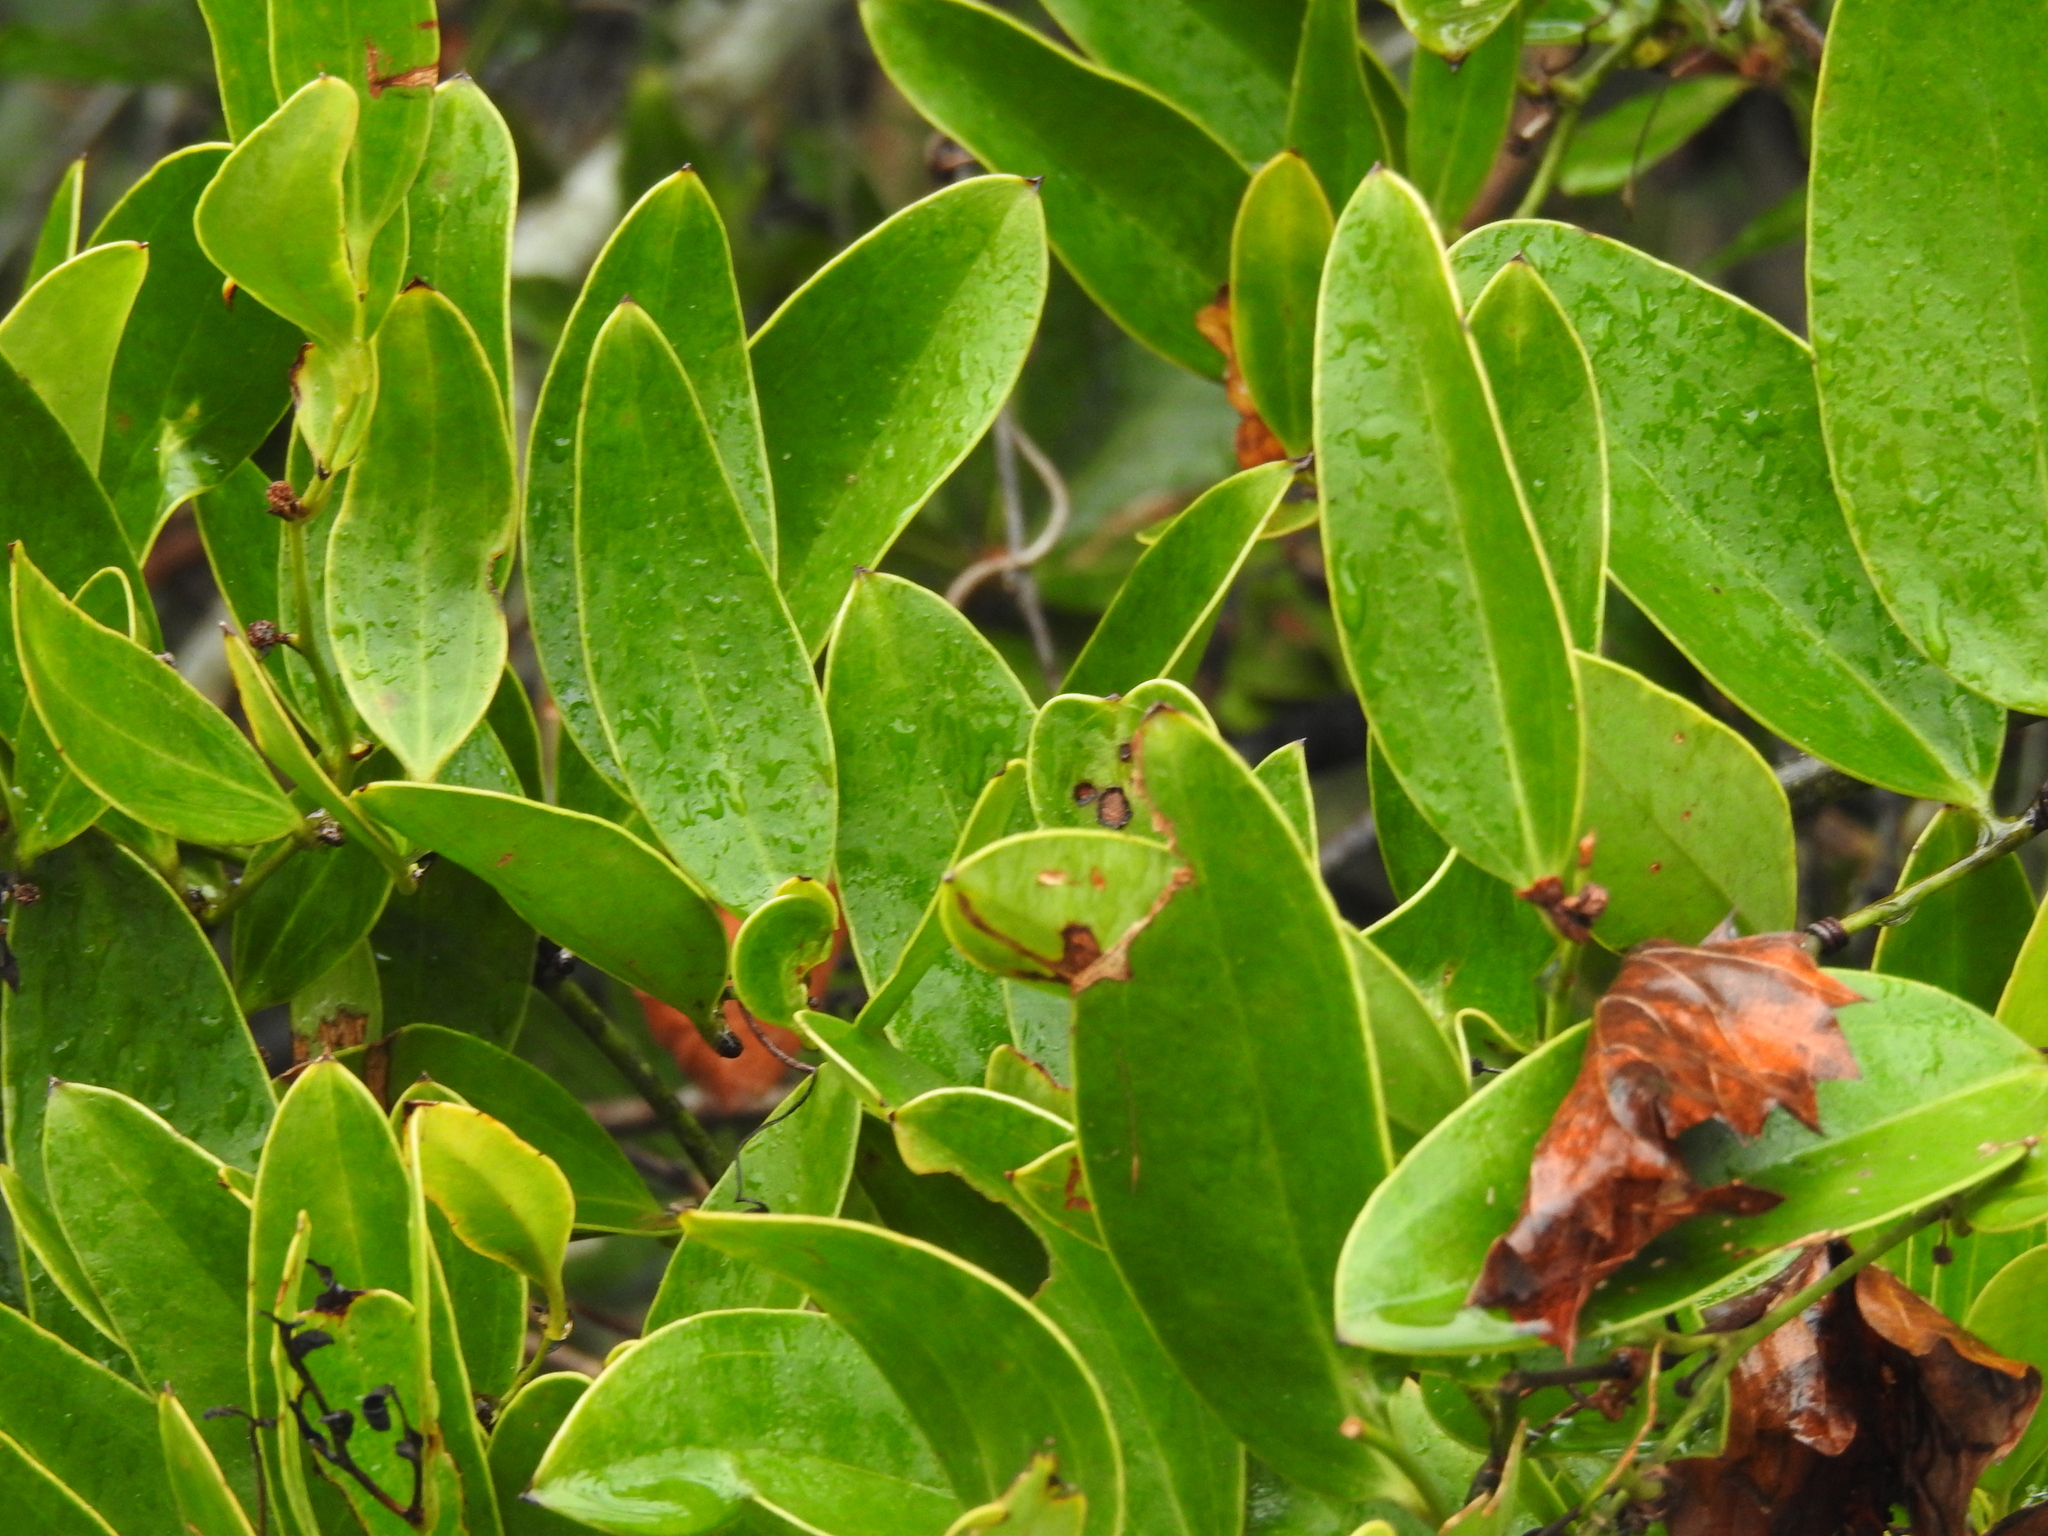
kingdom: Plantae
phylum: Tracheophyta
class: Liliopsida
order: Liliales
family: Smilacaceae
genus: Smilax
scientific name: Smilax laurifolia
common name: Bamboovine
